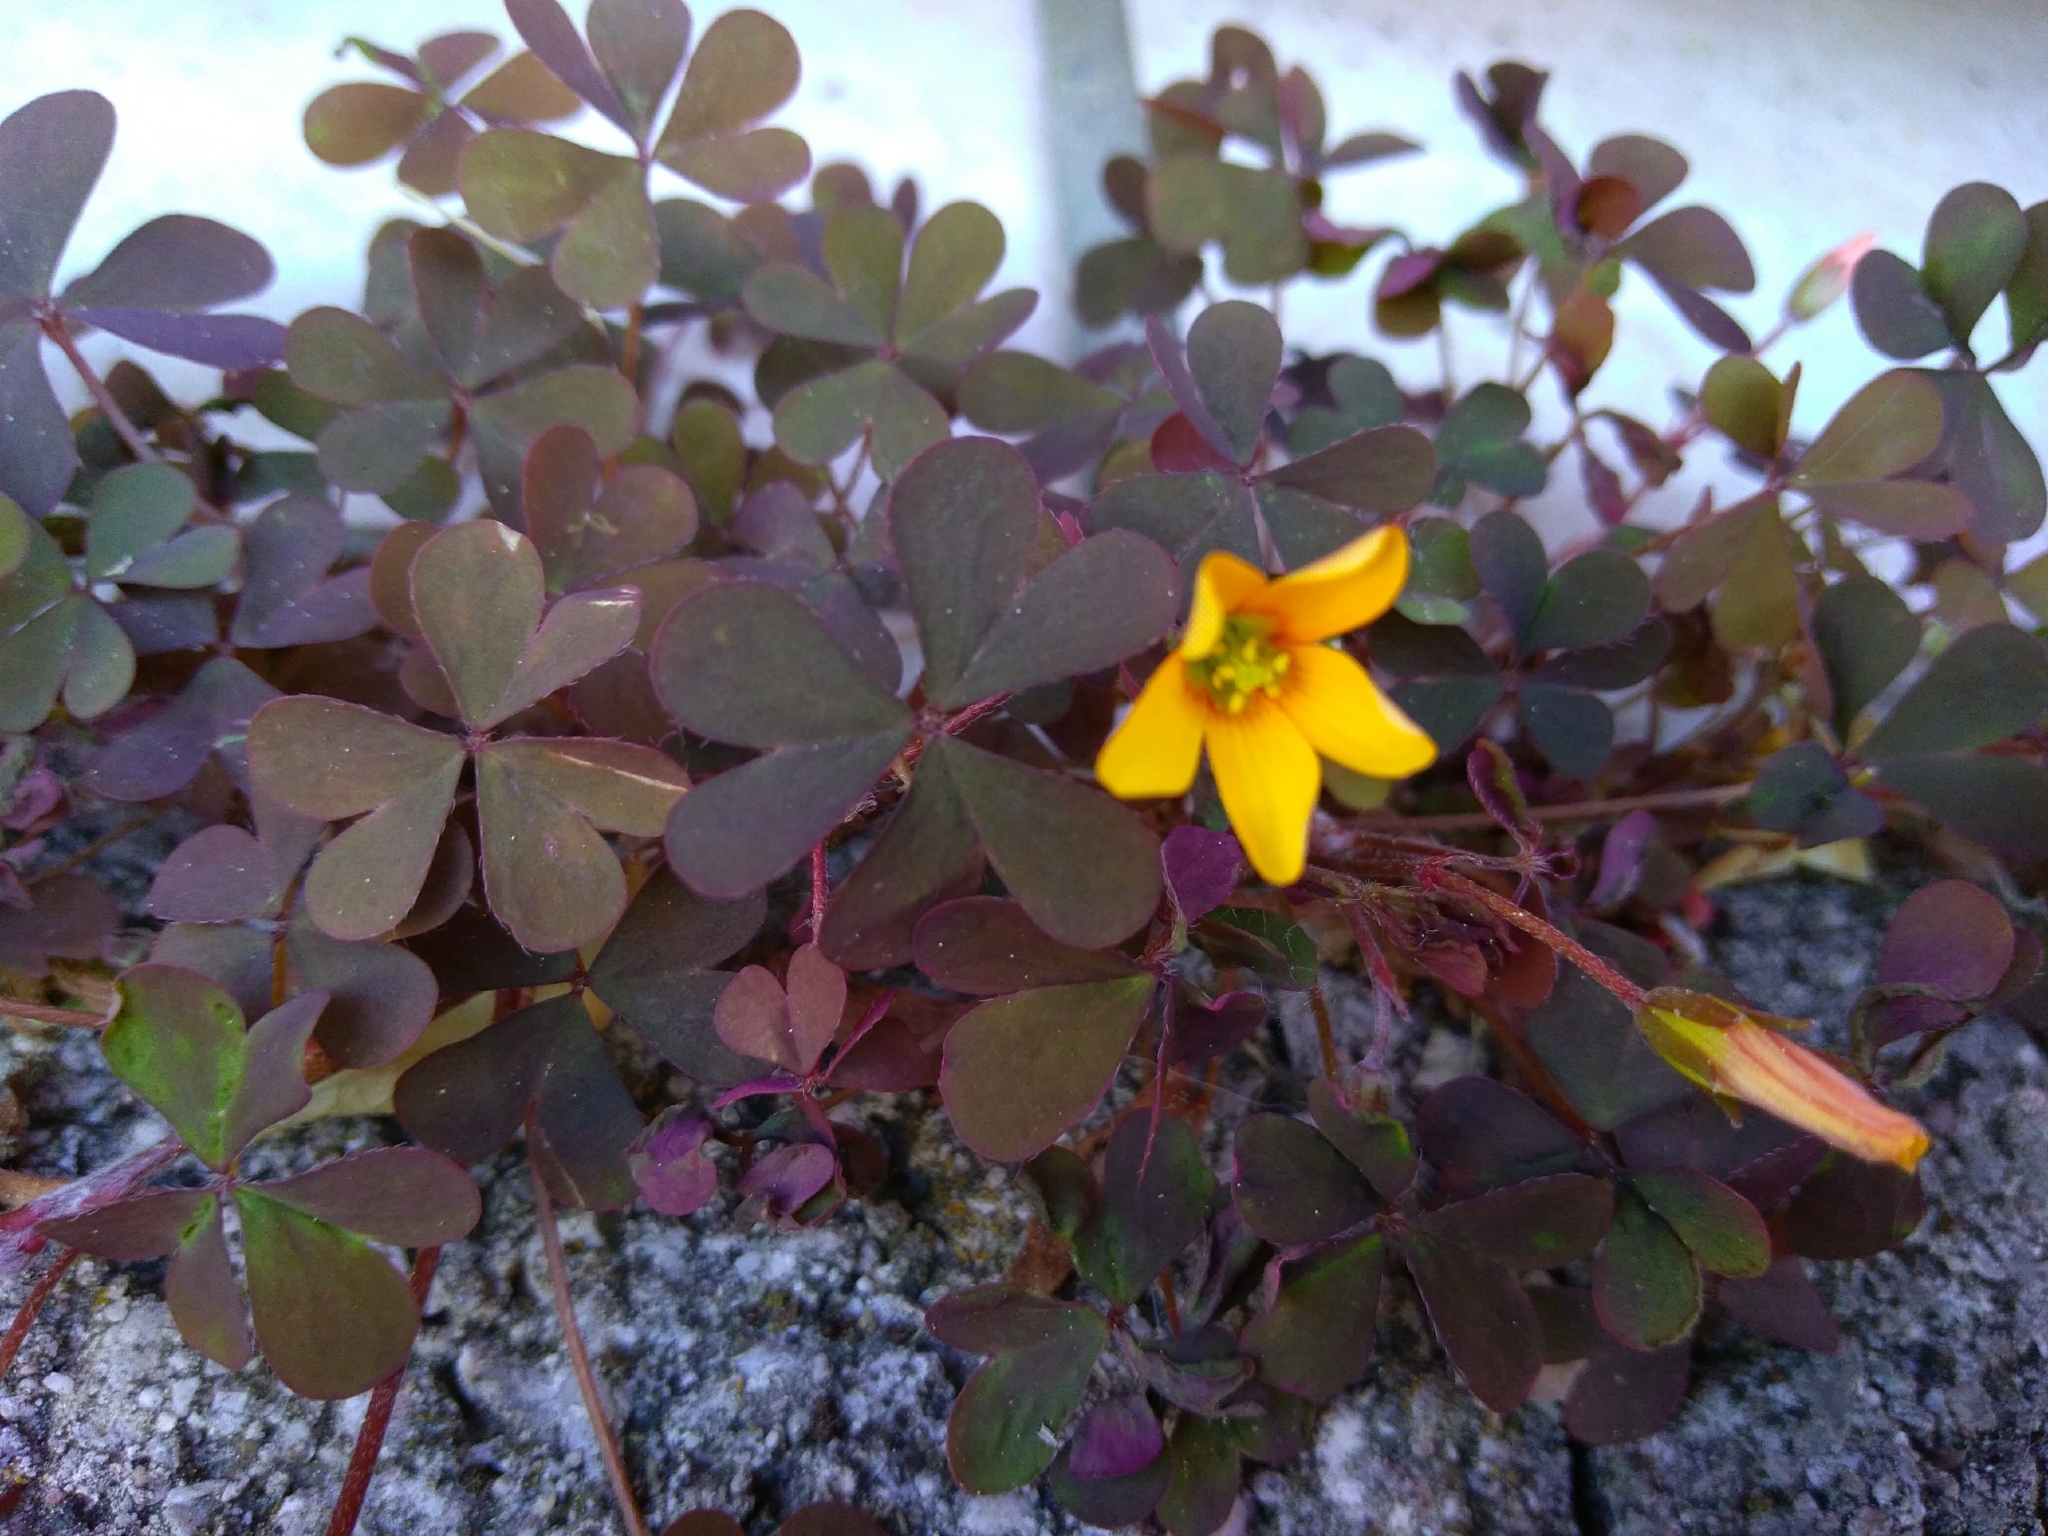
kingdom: Plantae
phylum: Tracheophyta
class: Magnoliopsida
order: Oxalidales
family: Oxalidaceae
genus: Oxalis
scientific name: Oxalis corniculata
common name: Procumbent yellow-sorrel
